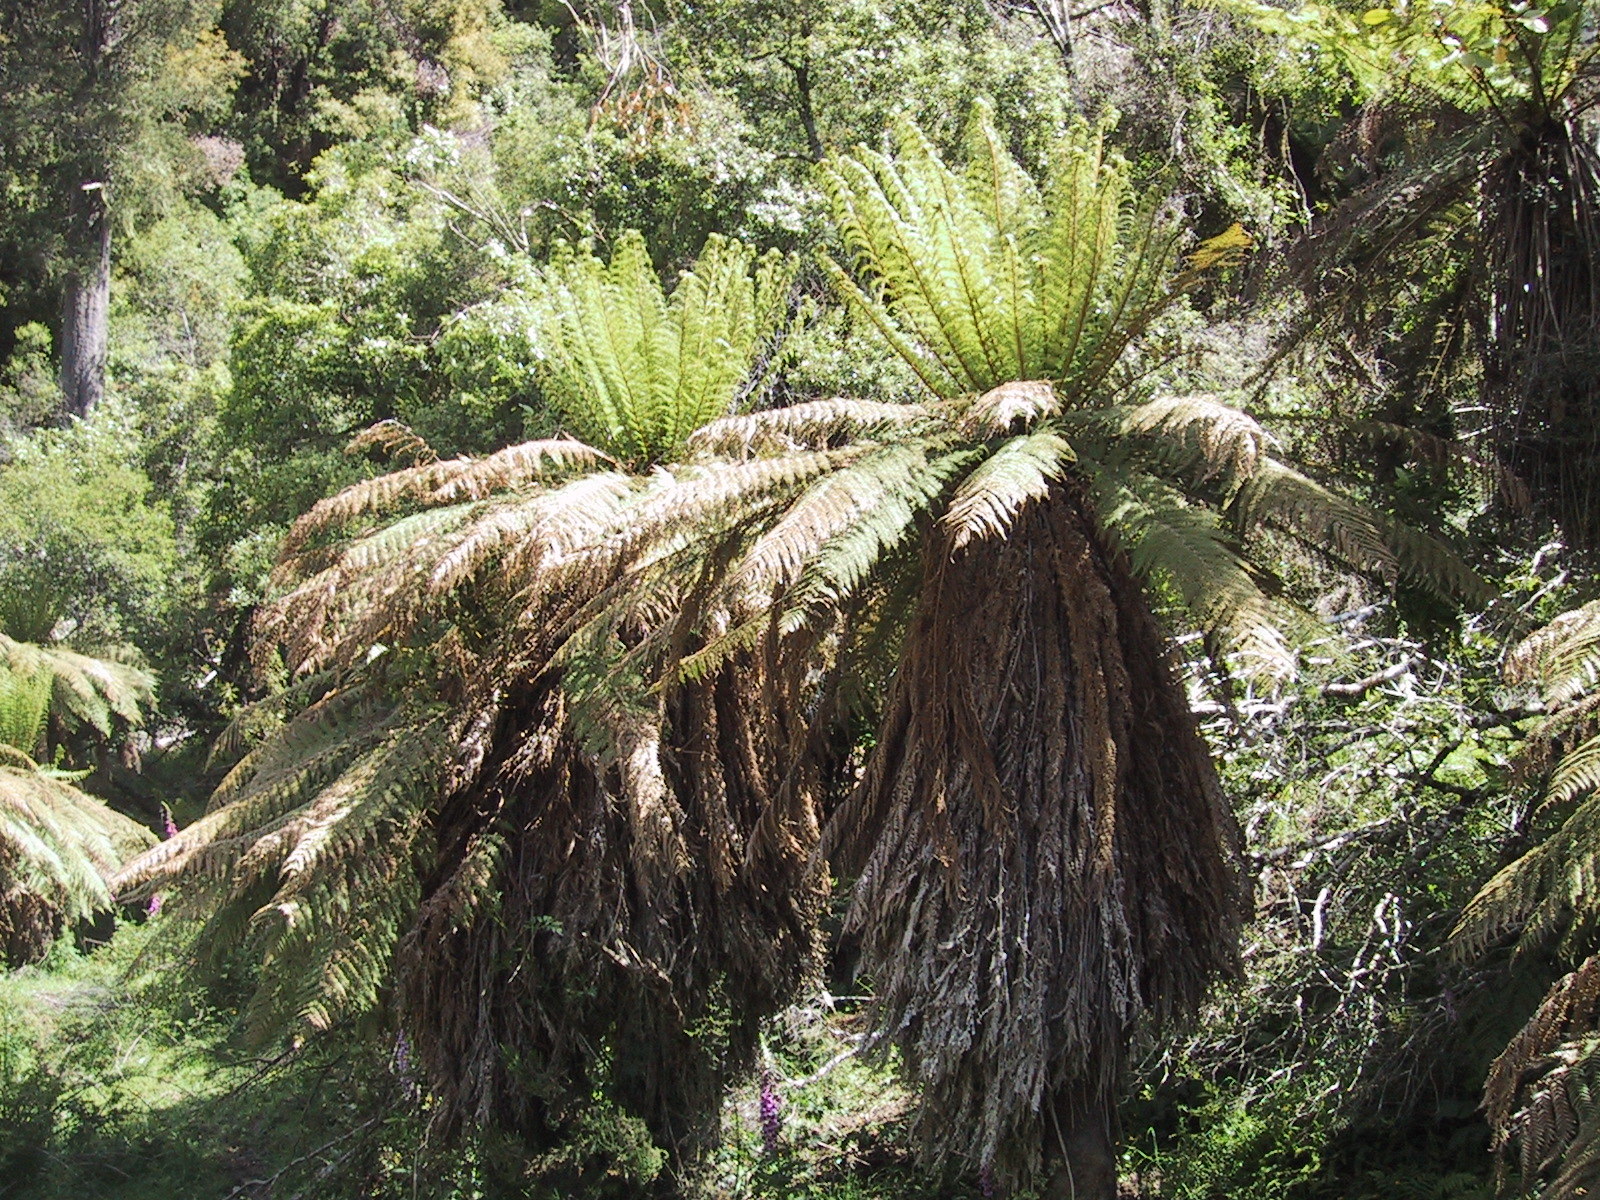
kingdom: Plantae
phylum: Tracheophyta
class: Polypodiopsida
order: Cyatheales
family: Dicksoniaceae
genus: Dicksonia
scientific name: Dicksonia fibrosa
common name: Golden tree fern
